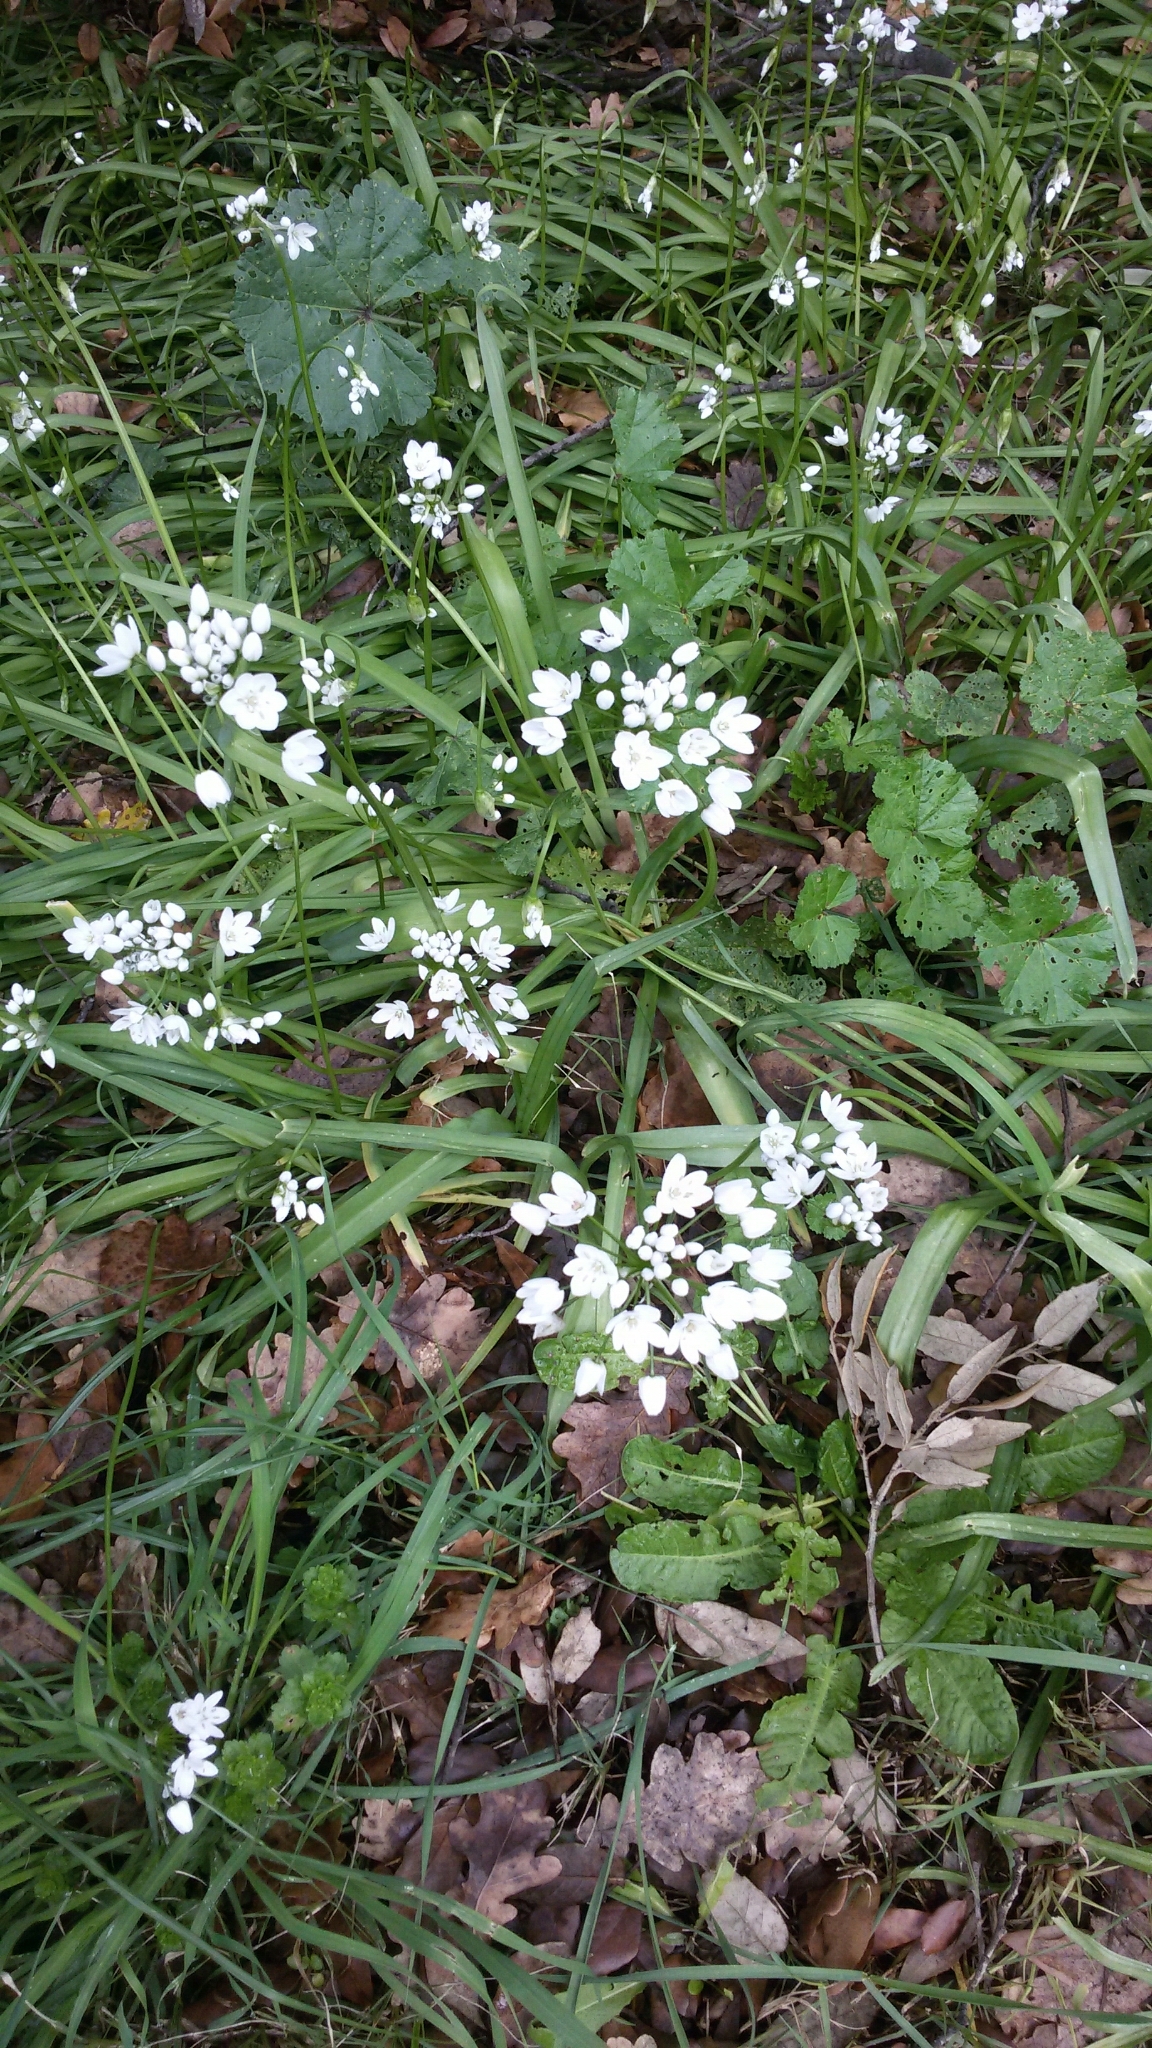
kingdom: Plantae
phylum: Tracheophyta
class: Liliopsida
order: Asparagales
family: Amaryllidaceae
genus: Allium
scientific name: Allium neapolitanum
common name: Neapolitan garlic
